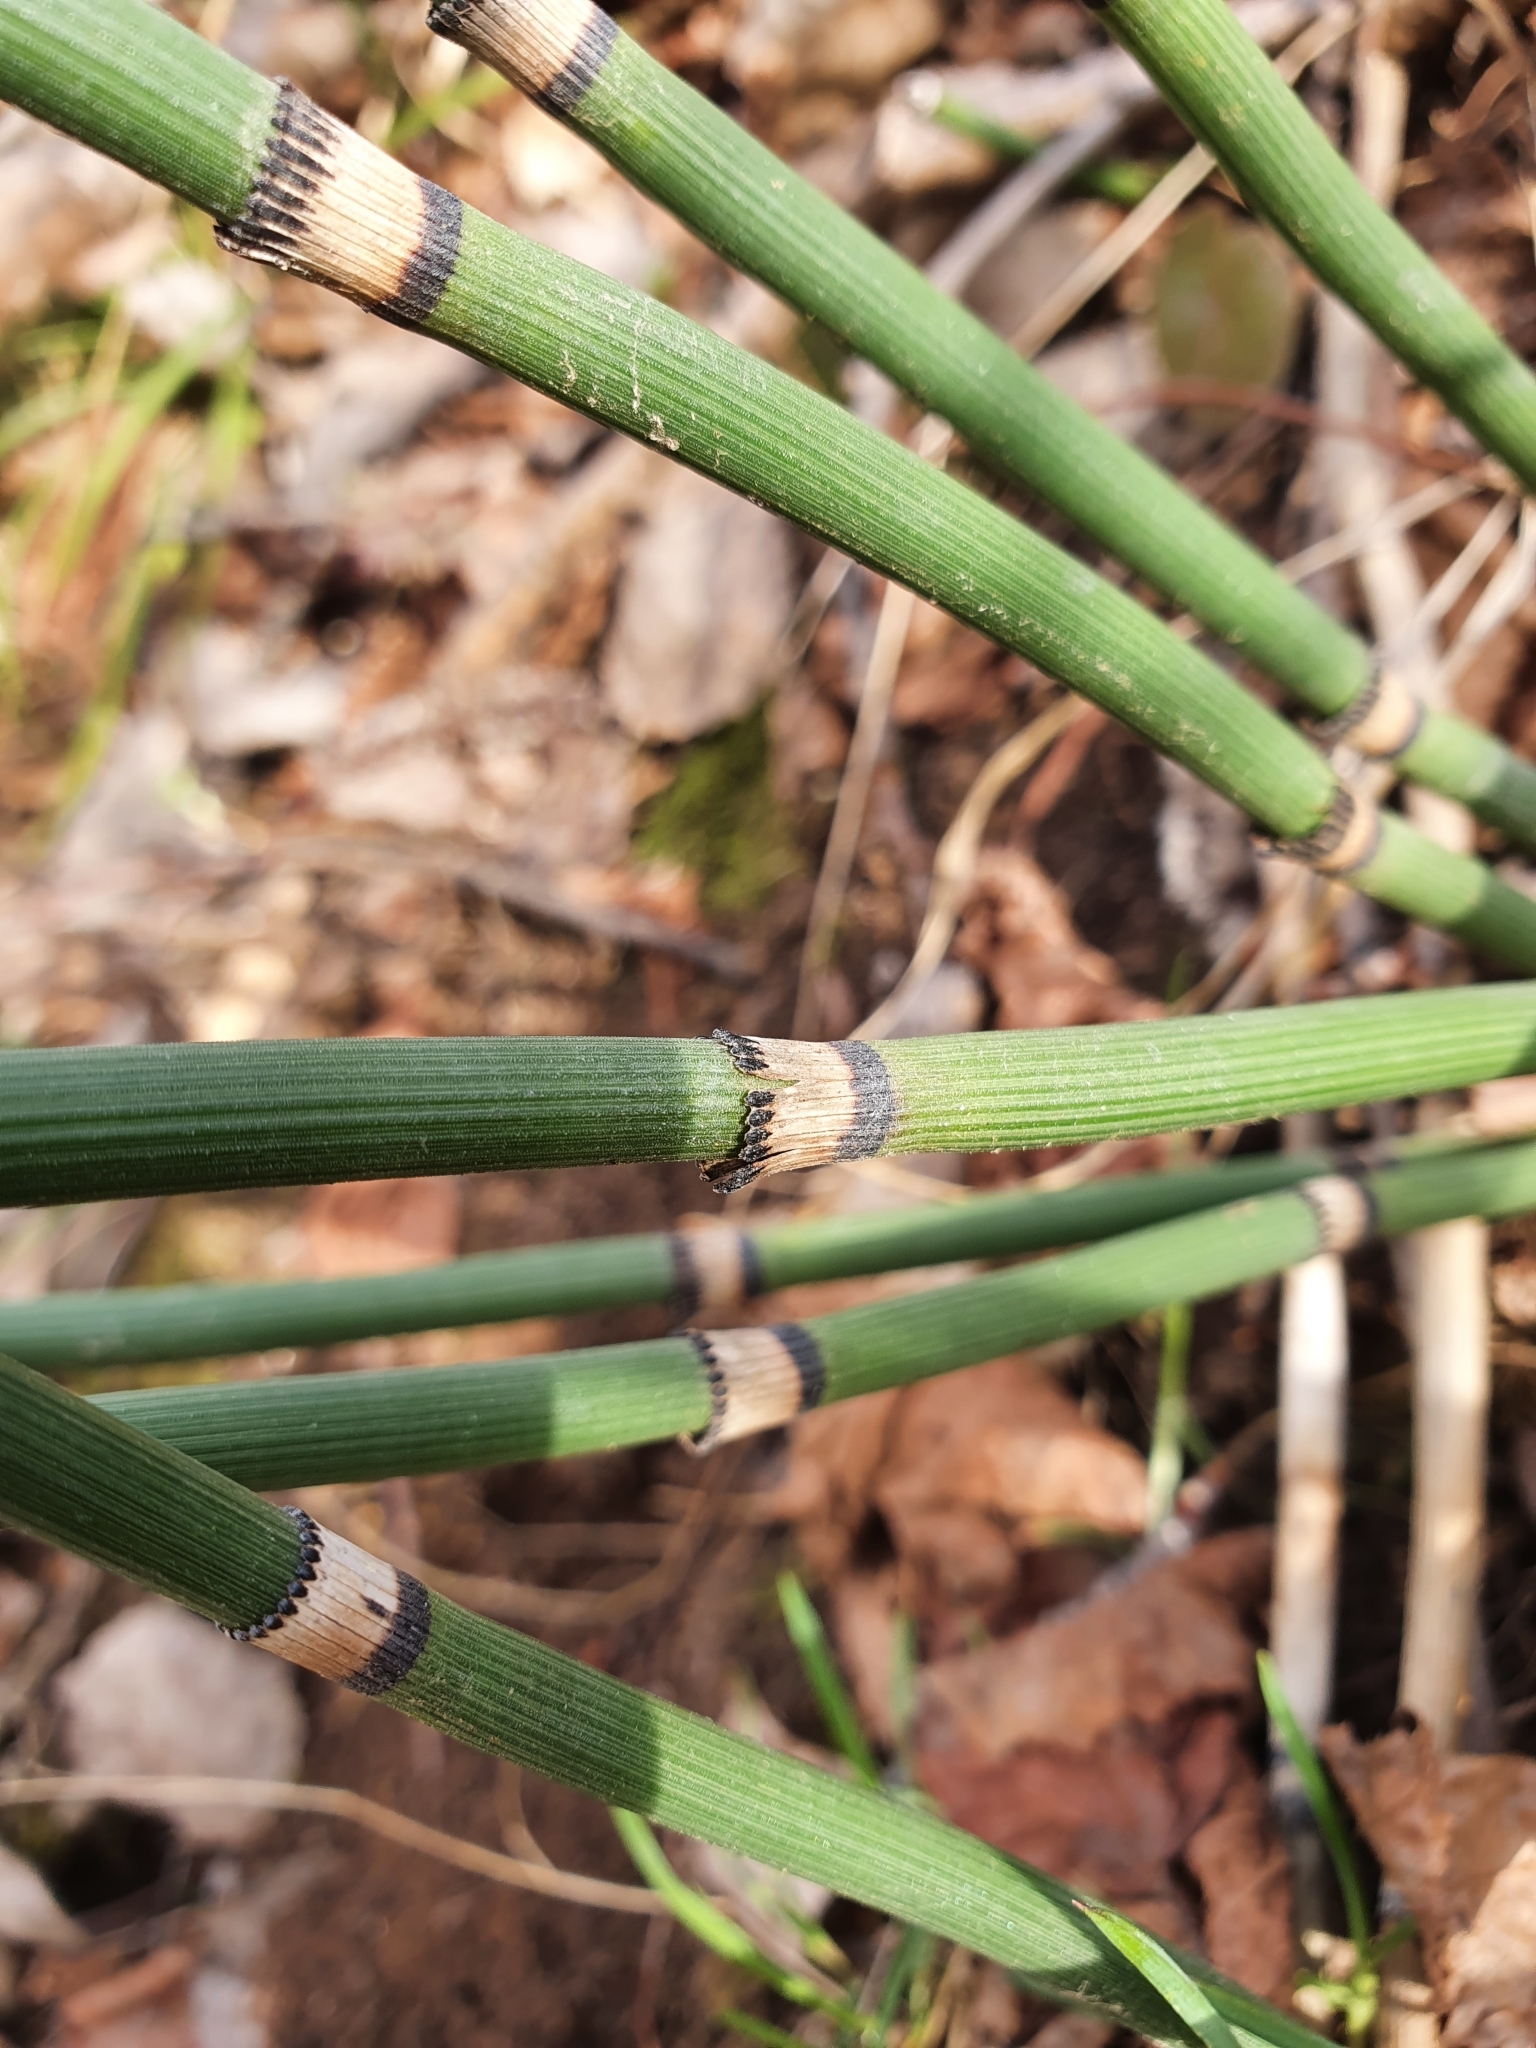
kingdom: Plantae
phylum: Tracheophyta
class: Polypodiopsida
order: Equisetales
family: Equisetaceae
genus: Equisetum
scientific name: Equisetum hyemale
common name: Rough horsetail
